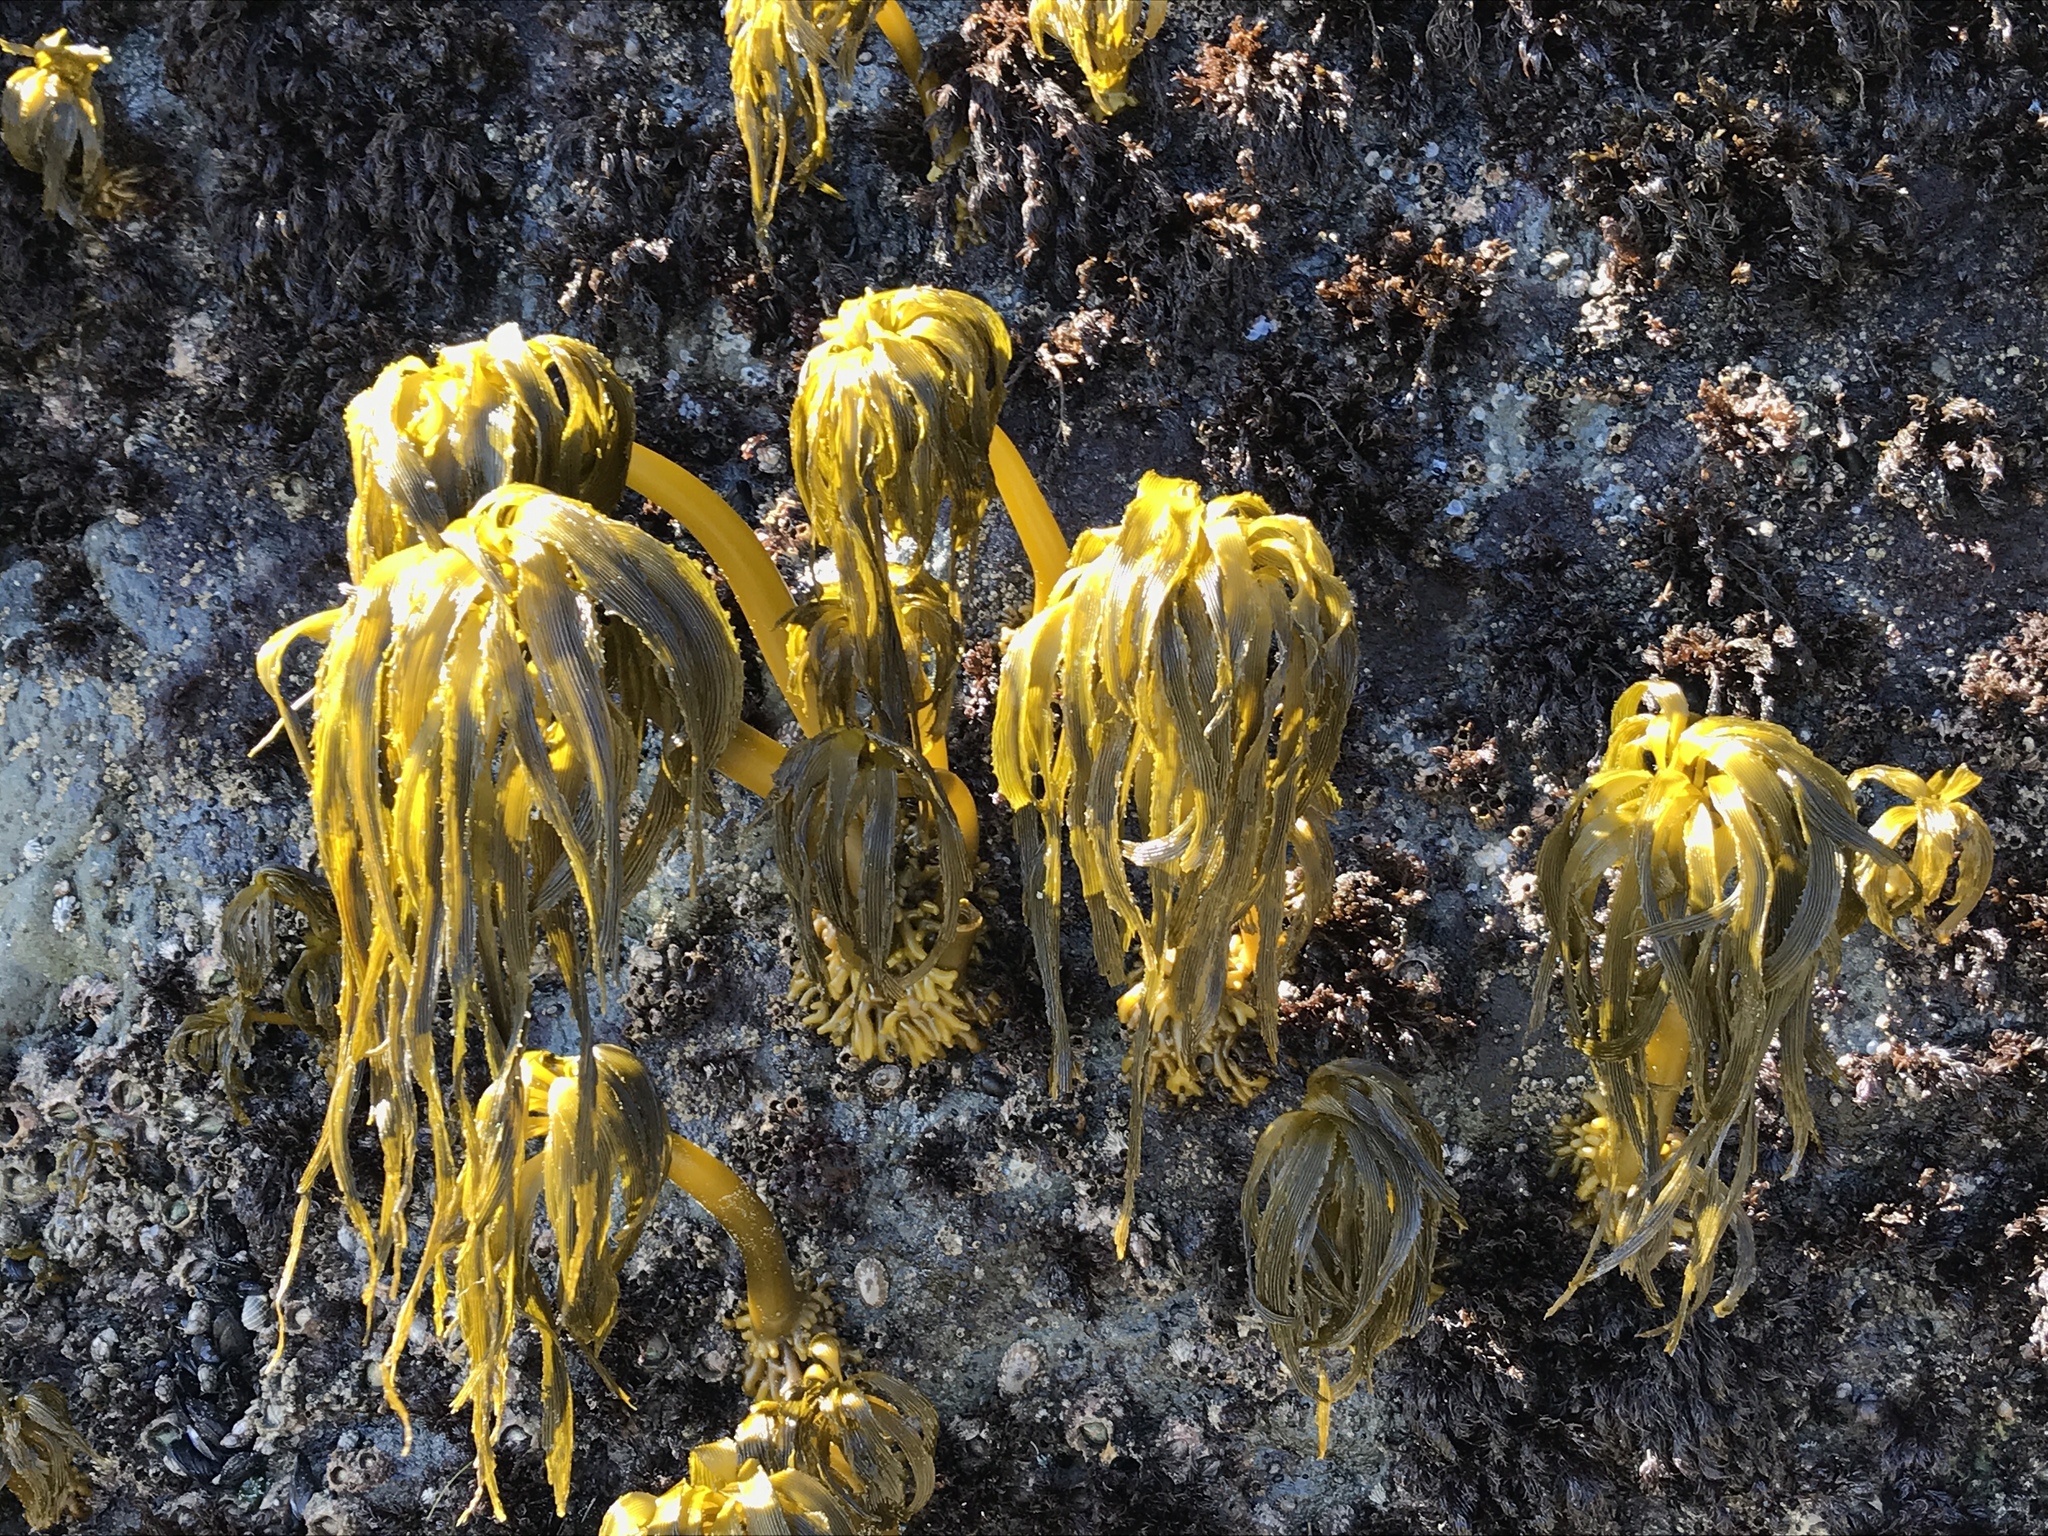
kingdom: Chromista
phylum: Ochrophyta
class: Phaeophyceae
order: Laminariales
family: Laminariaceae
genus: Postelsia
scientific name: Postelsia palmiformis
